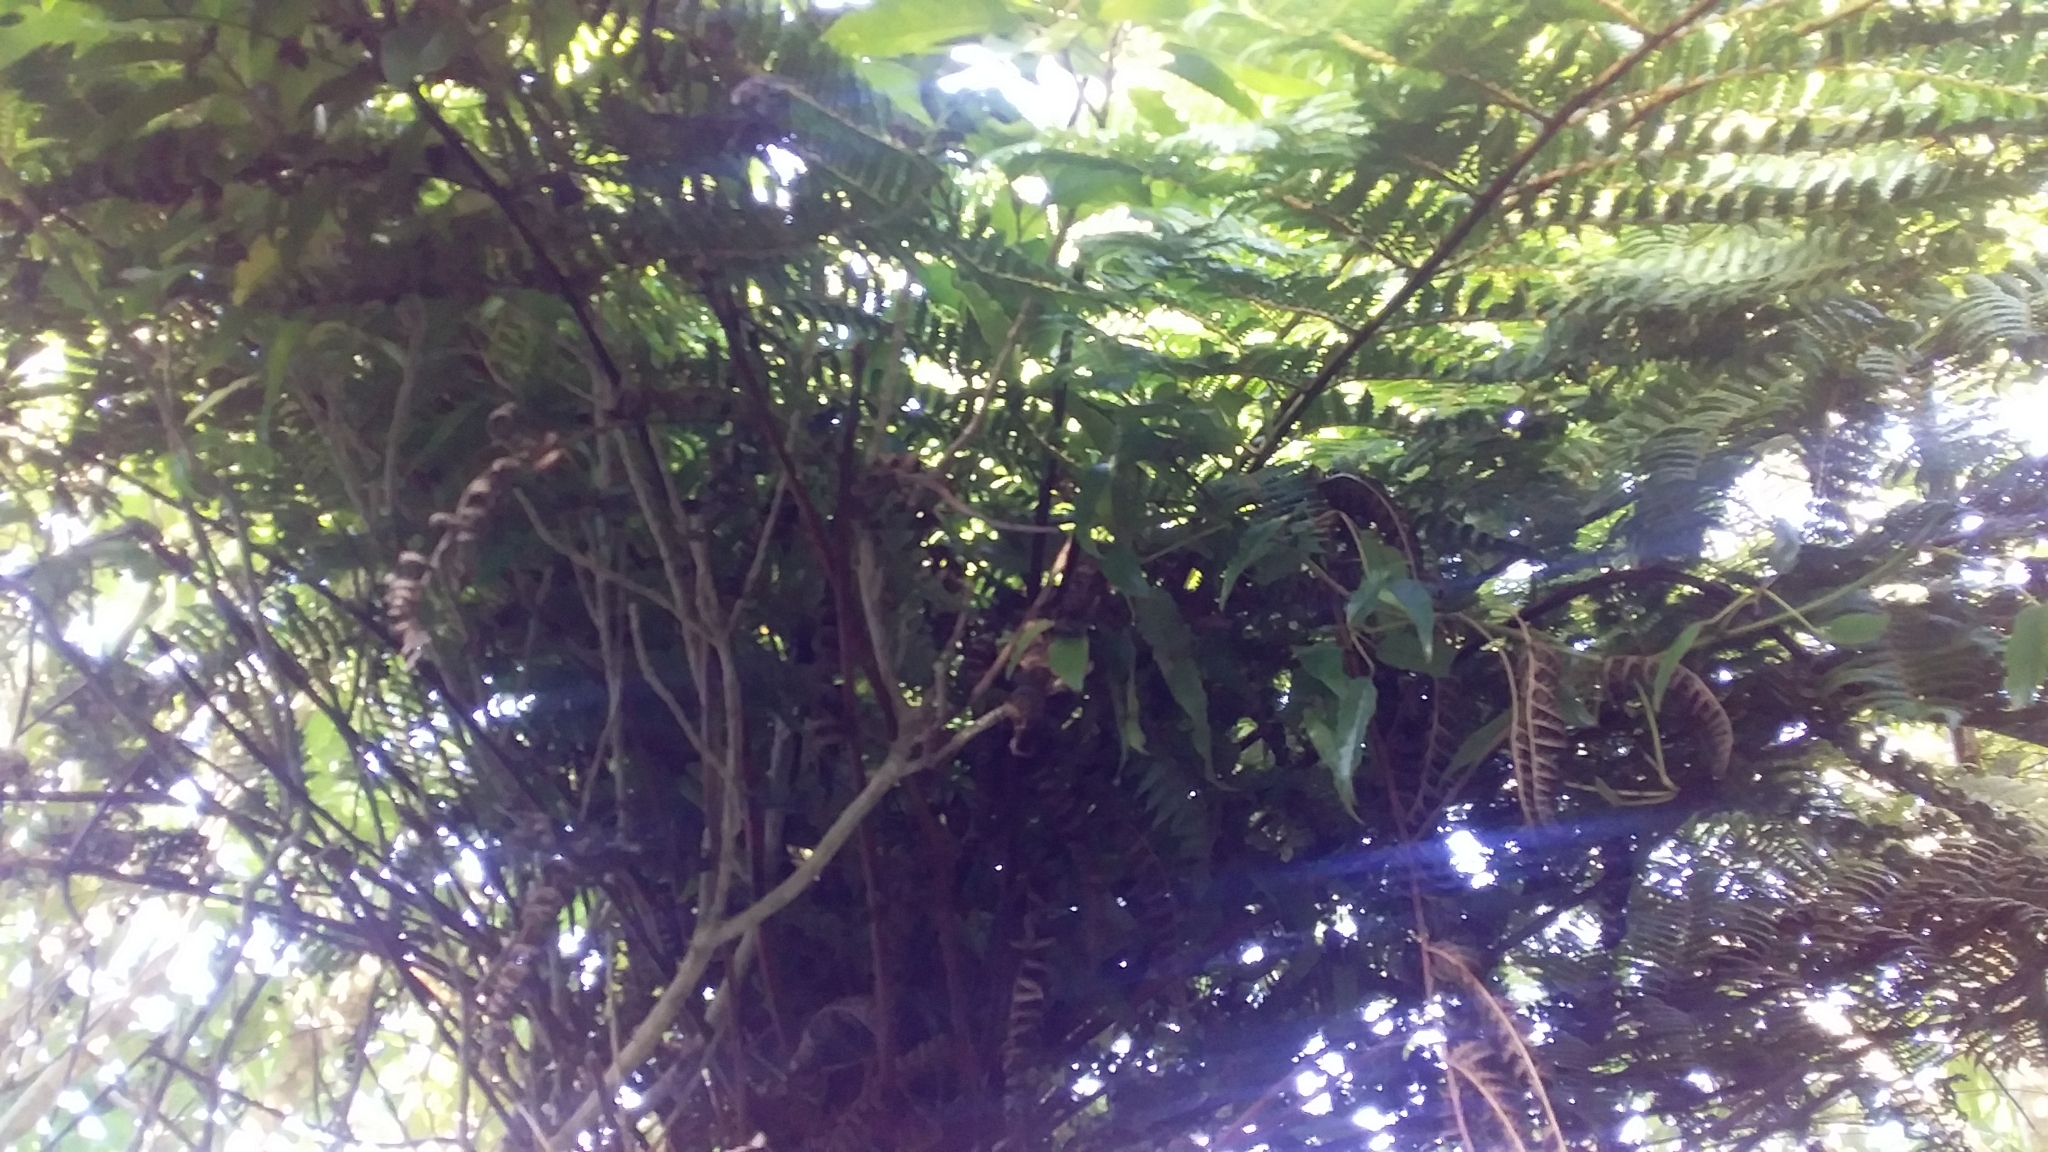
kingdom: Plantae
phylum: Tracheophyta
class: Polypodiopsida
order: Cyatheales
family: Cyatheaceae
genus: Alsophila
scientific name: Alsophila smithii
